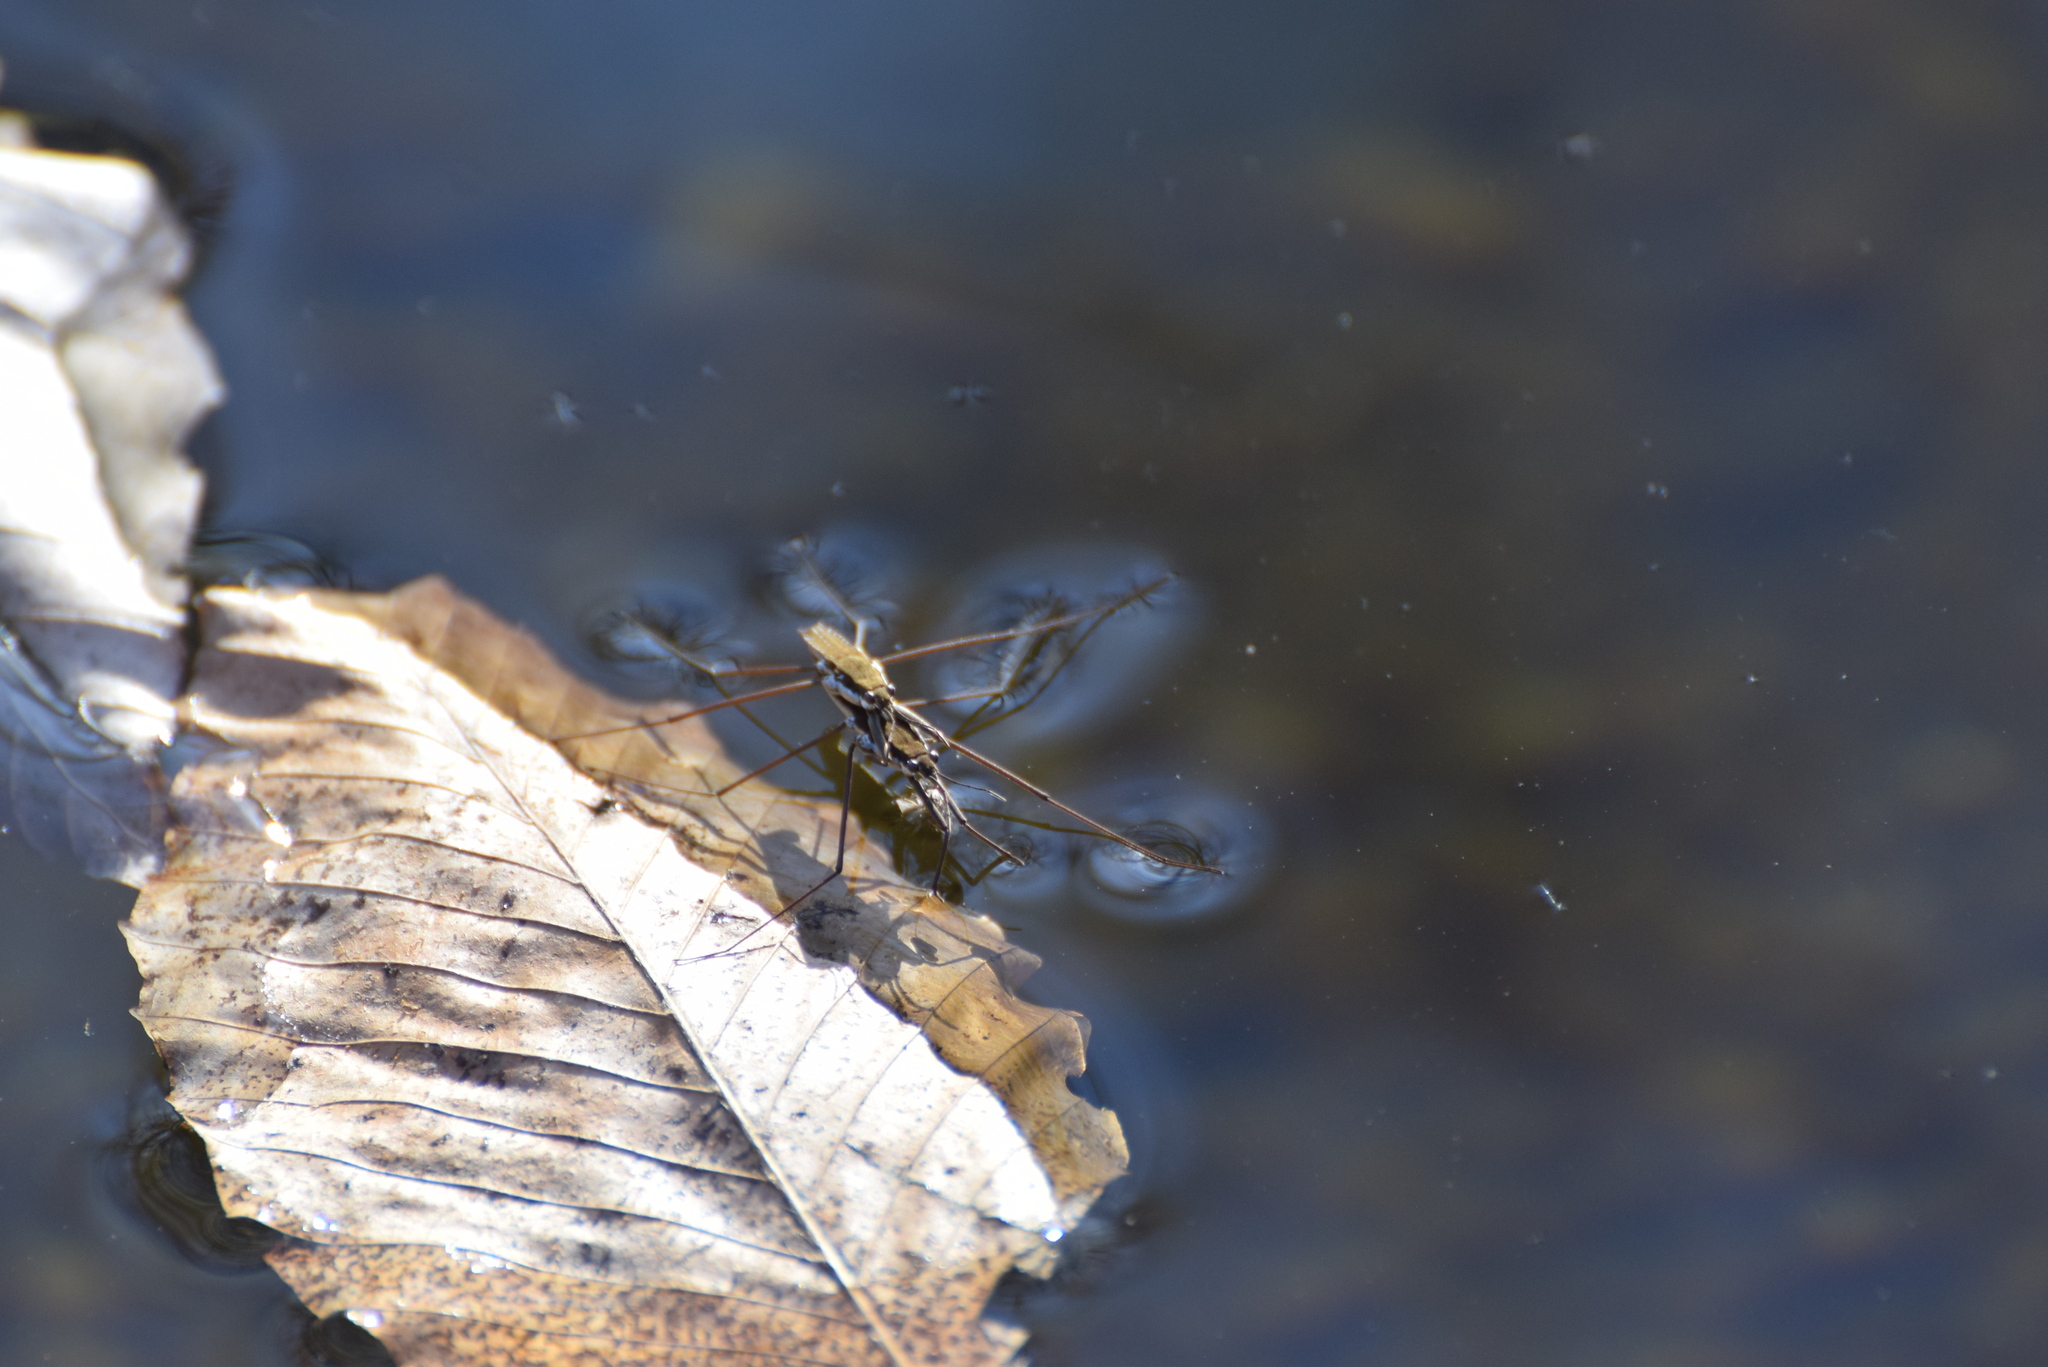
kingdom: Animalia
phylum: Arthropoda
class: Insecta
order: Hemiptera
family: Gerridae
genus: Aquarius
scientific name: Aquarius remigis
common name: Common water strider
